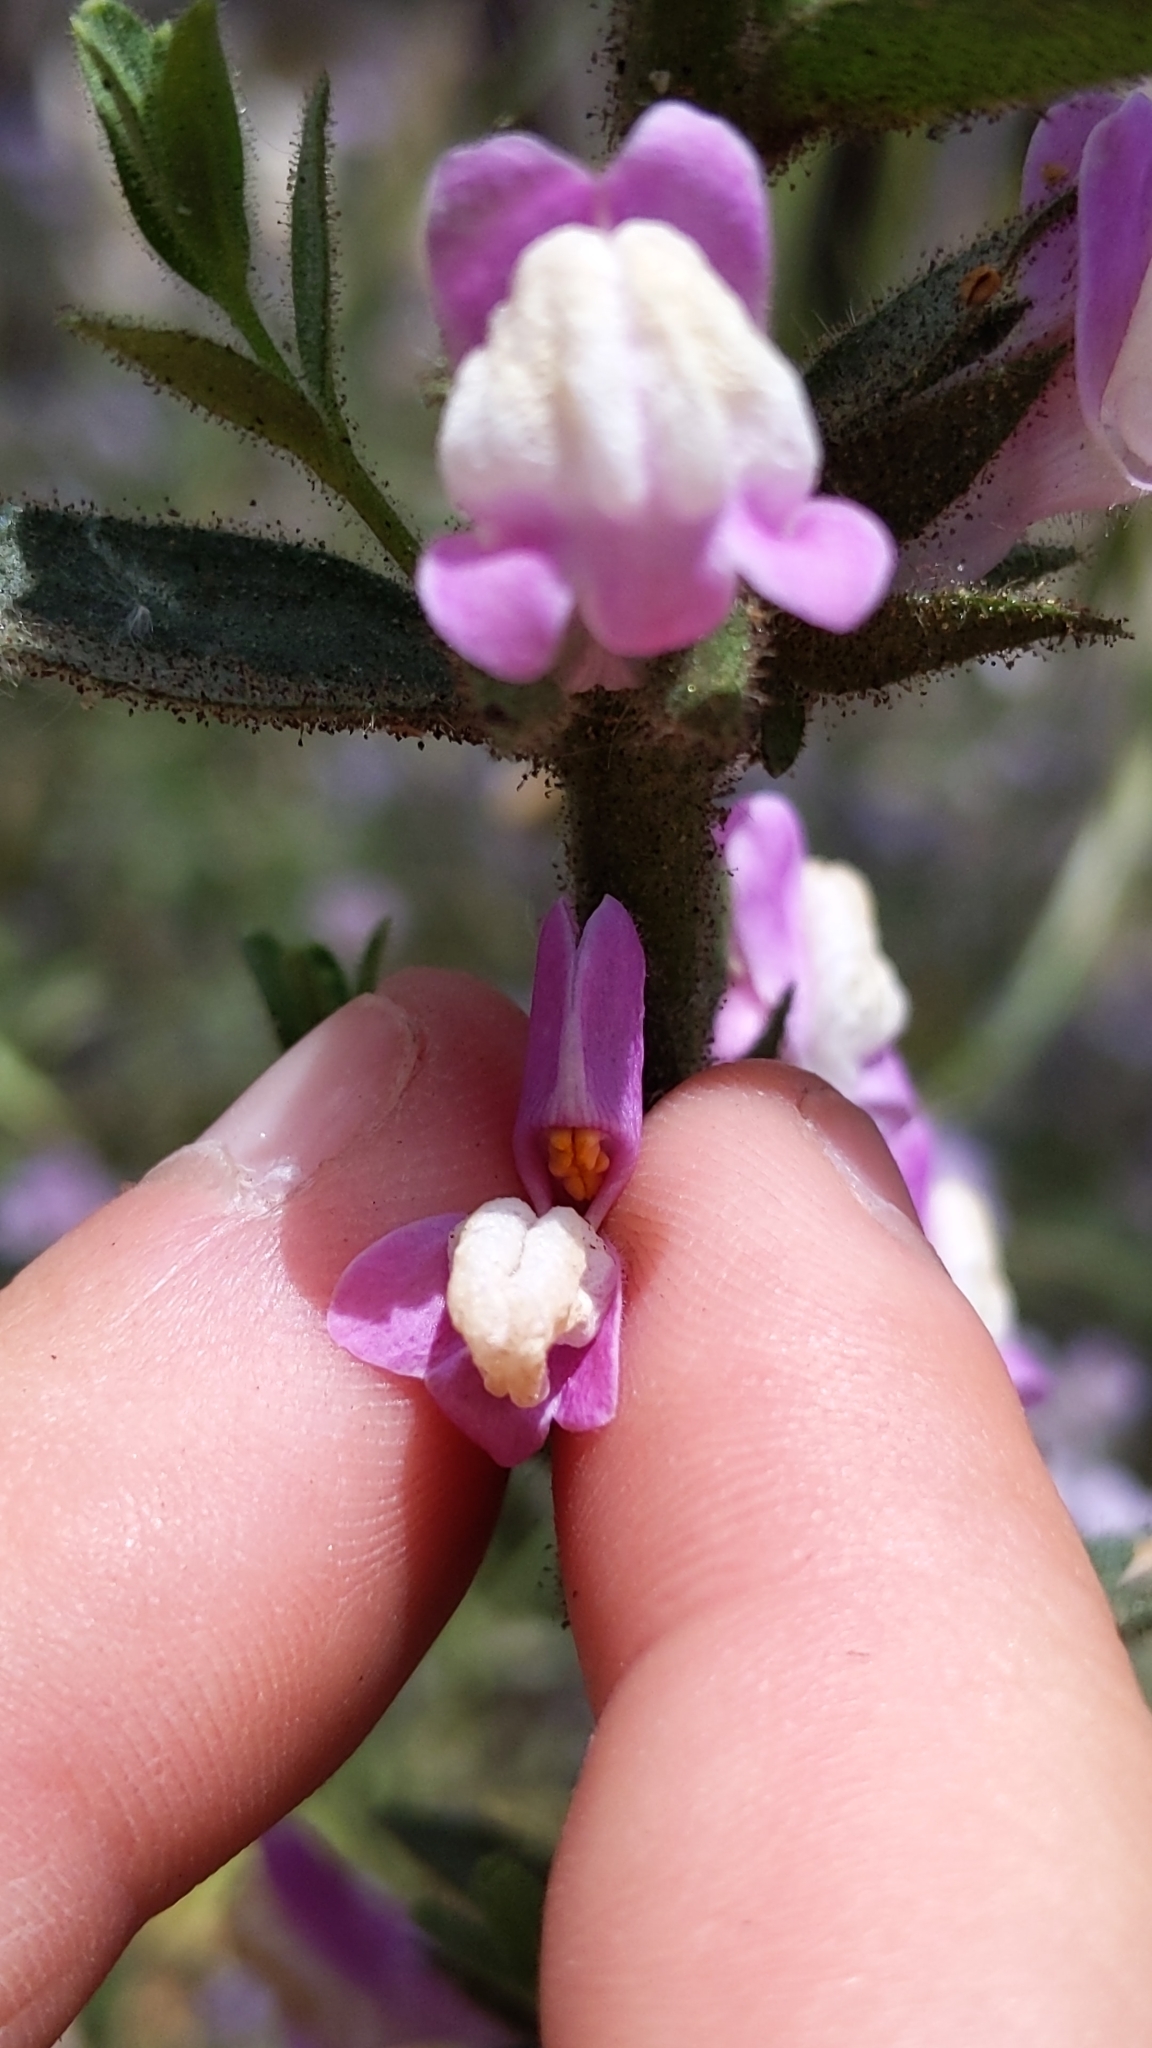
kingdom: Plantae
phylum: Tracheophyta
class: Magnoliopsida
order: Lamiales
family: Plantaginaceae
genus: Sairocarpus
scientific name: Sairocarpus multiflorus
